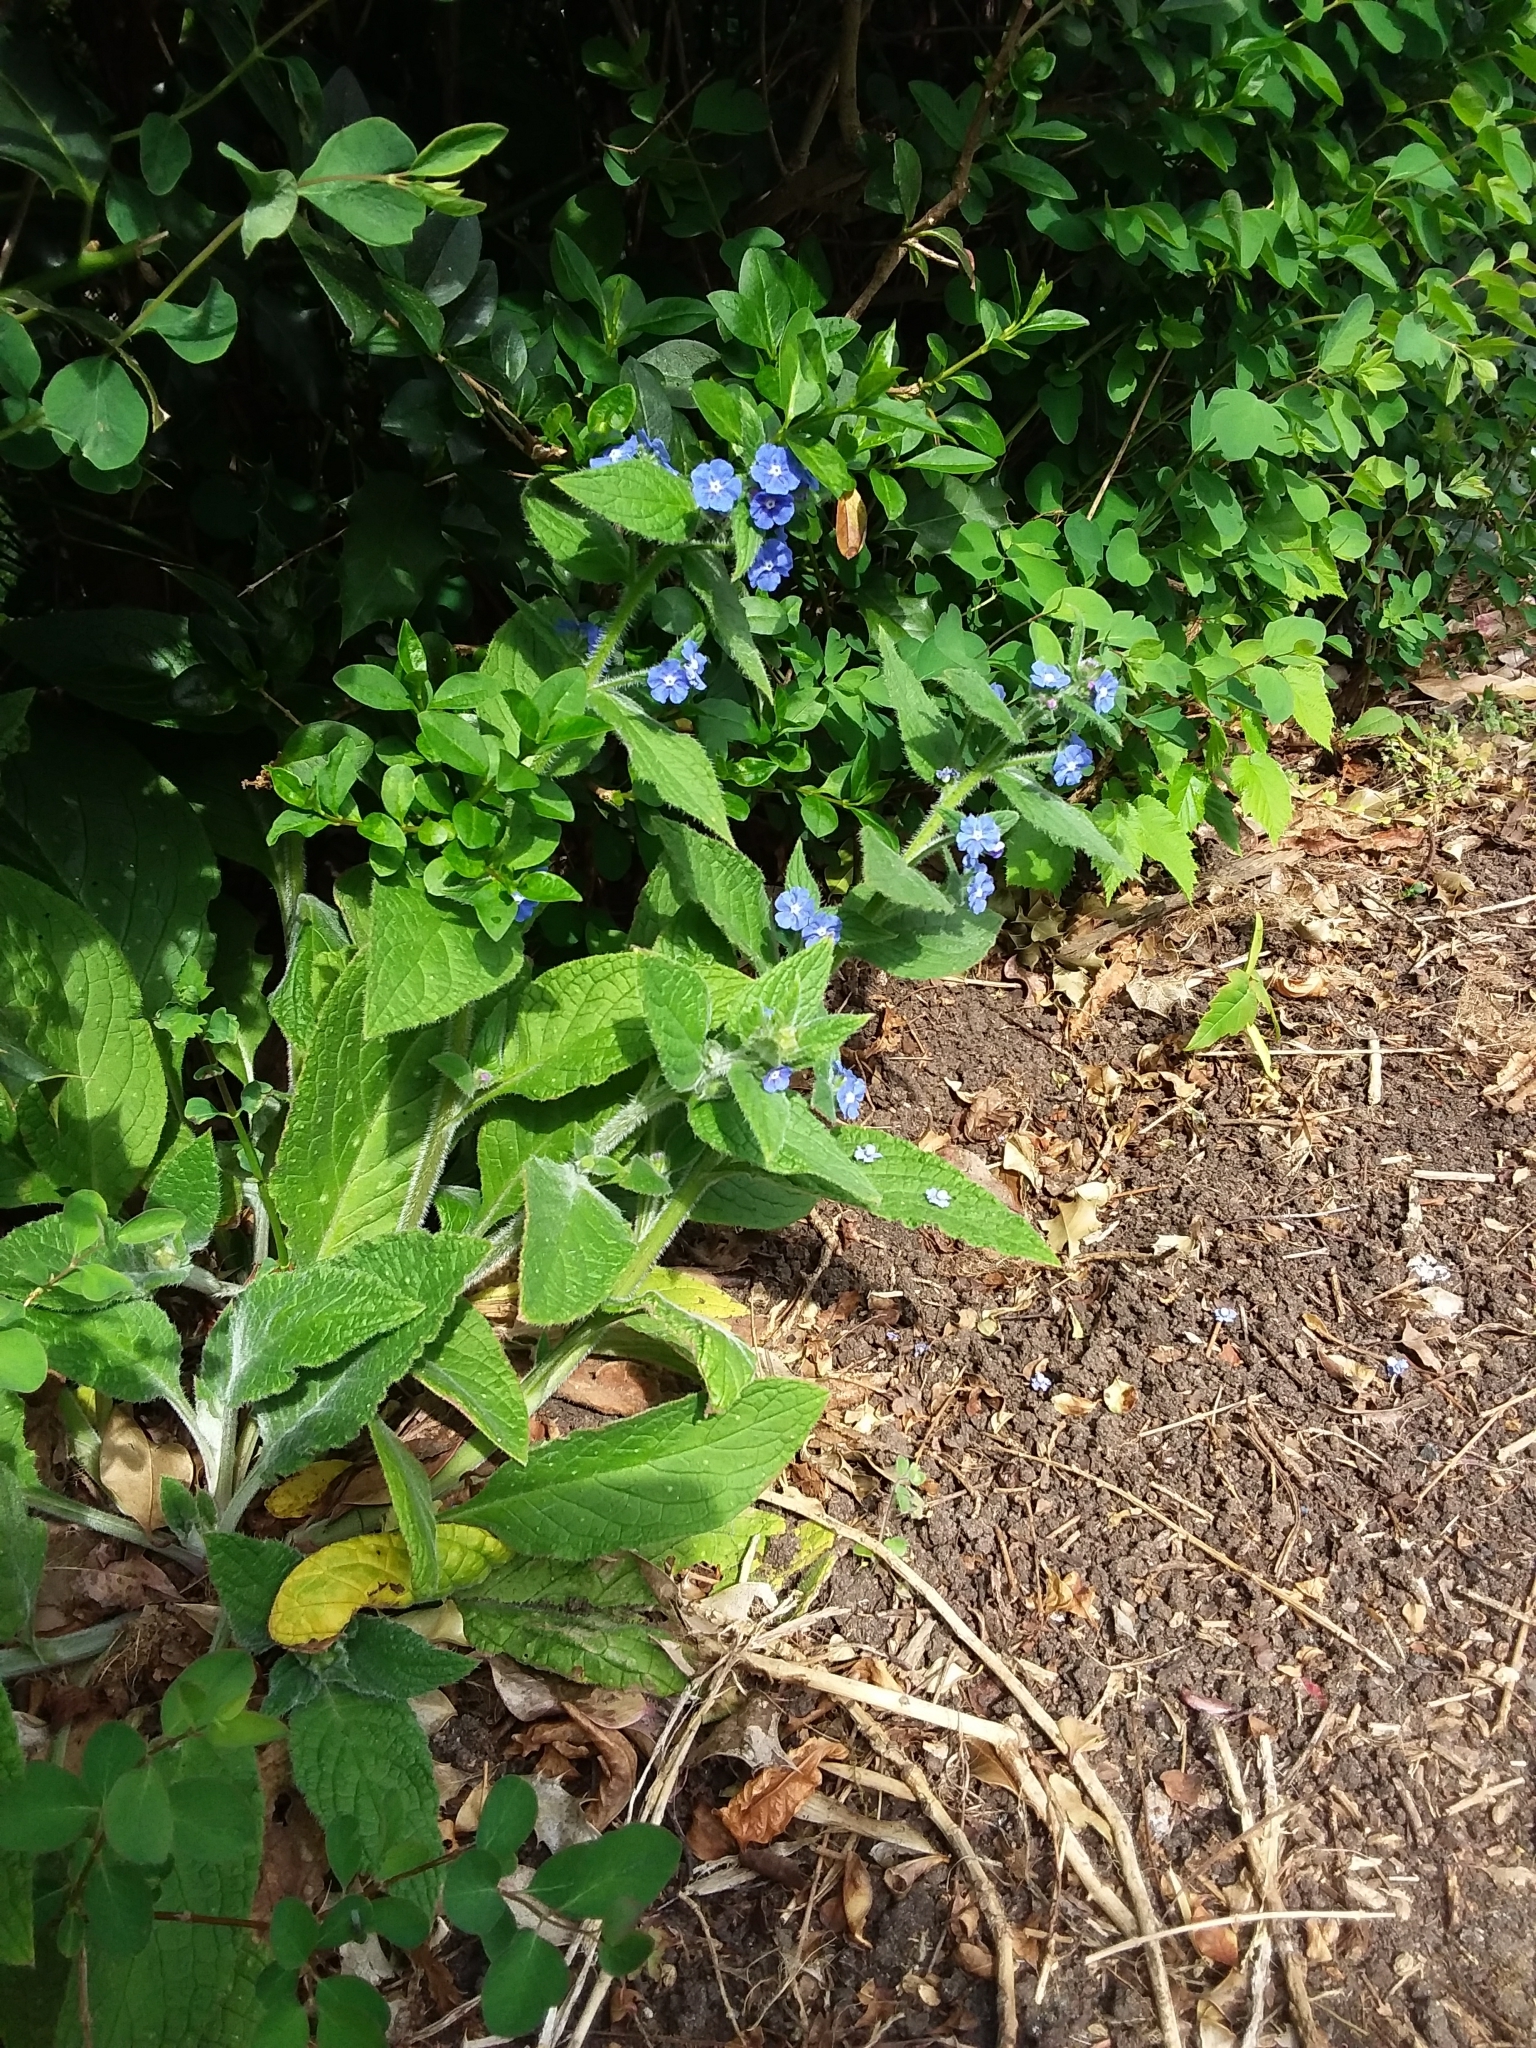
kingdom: Plantae
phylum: Tracheophyta
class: Magnoliopsida
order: Boraginales
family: Boraginaceae
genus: Pentaglottis
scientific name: Pentaglottis sempervirens
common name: Green alkanet
